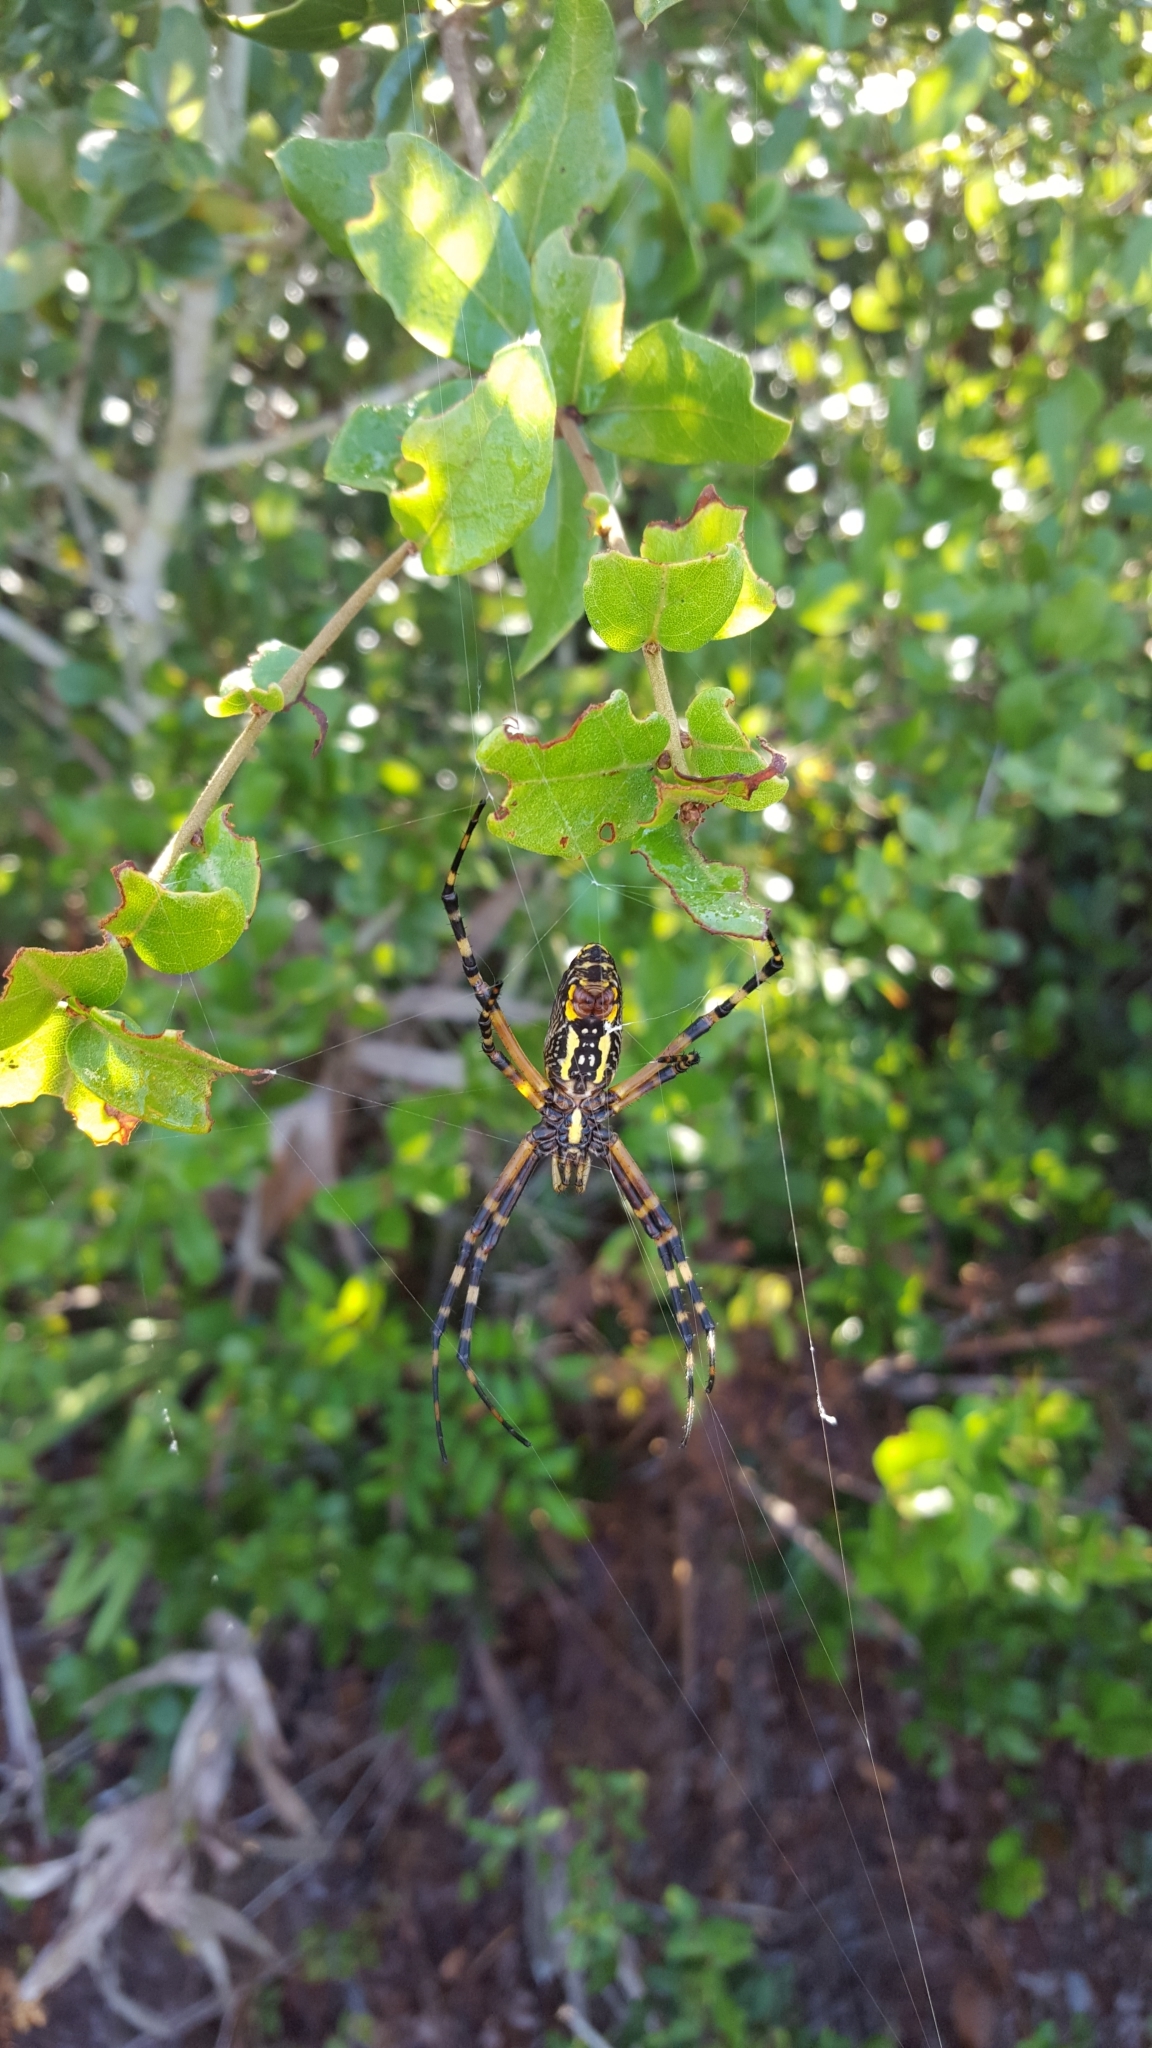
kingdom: Animalia
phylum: Arthropoda
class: Arachnida
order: Araneae
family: Araneidae
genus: Argiope
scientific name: Argiope aurantia
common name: Orb weavers
